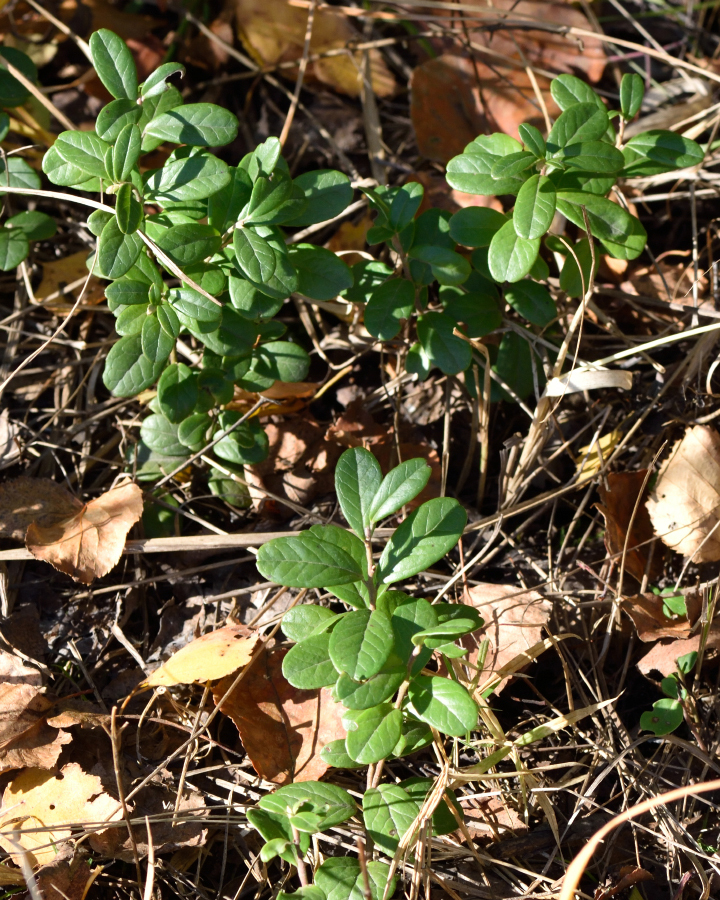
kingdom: Plantae
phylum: Tracheophyta
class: Magnoliopsida
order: Ericales
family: Ericaceae
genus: Vaccinium
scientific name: Vaccinium vitis-idaea
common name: Cowberry
